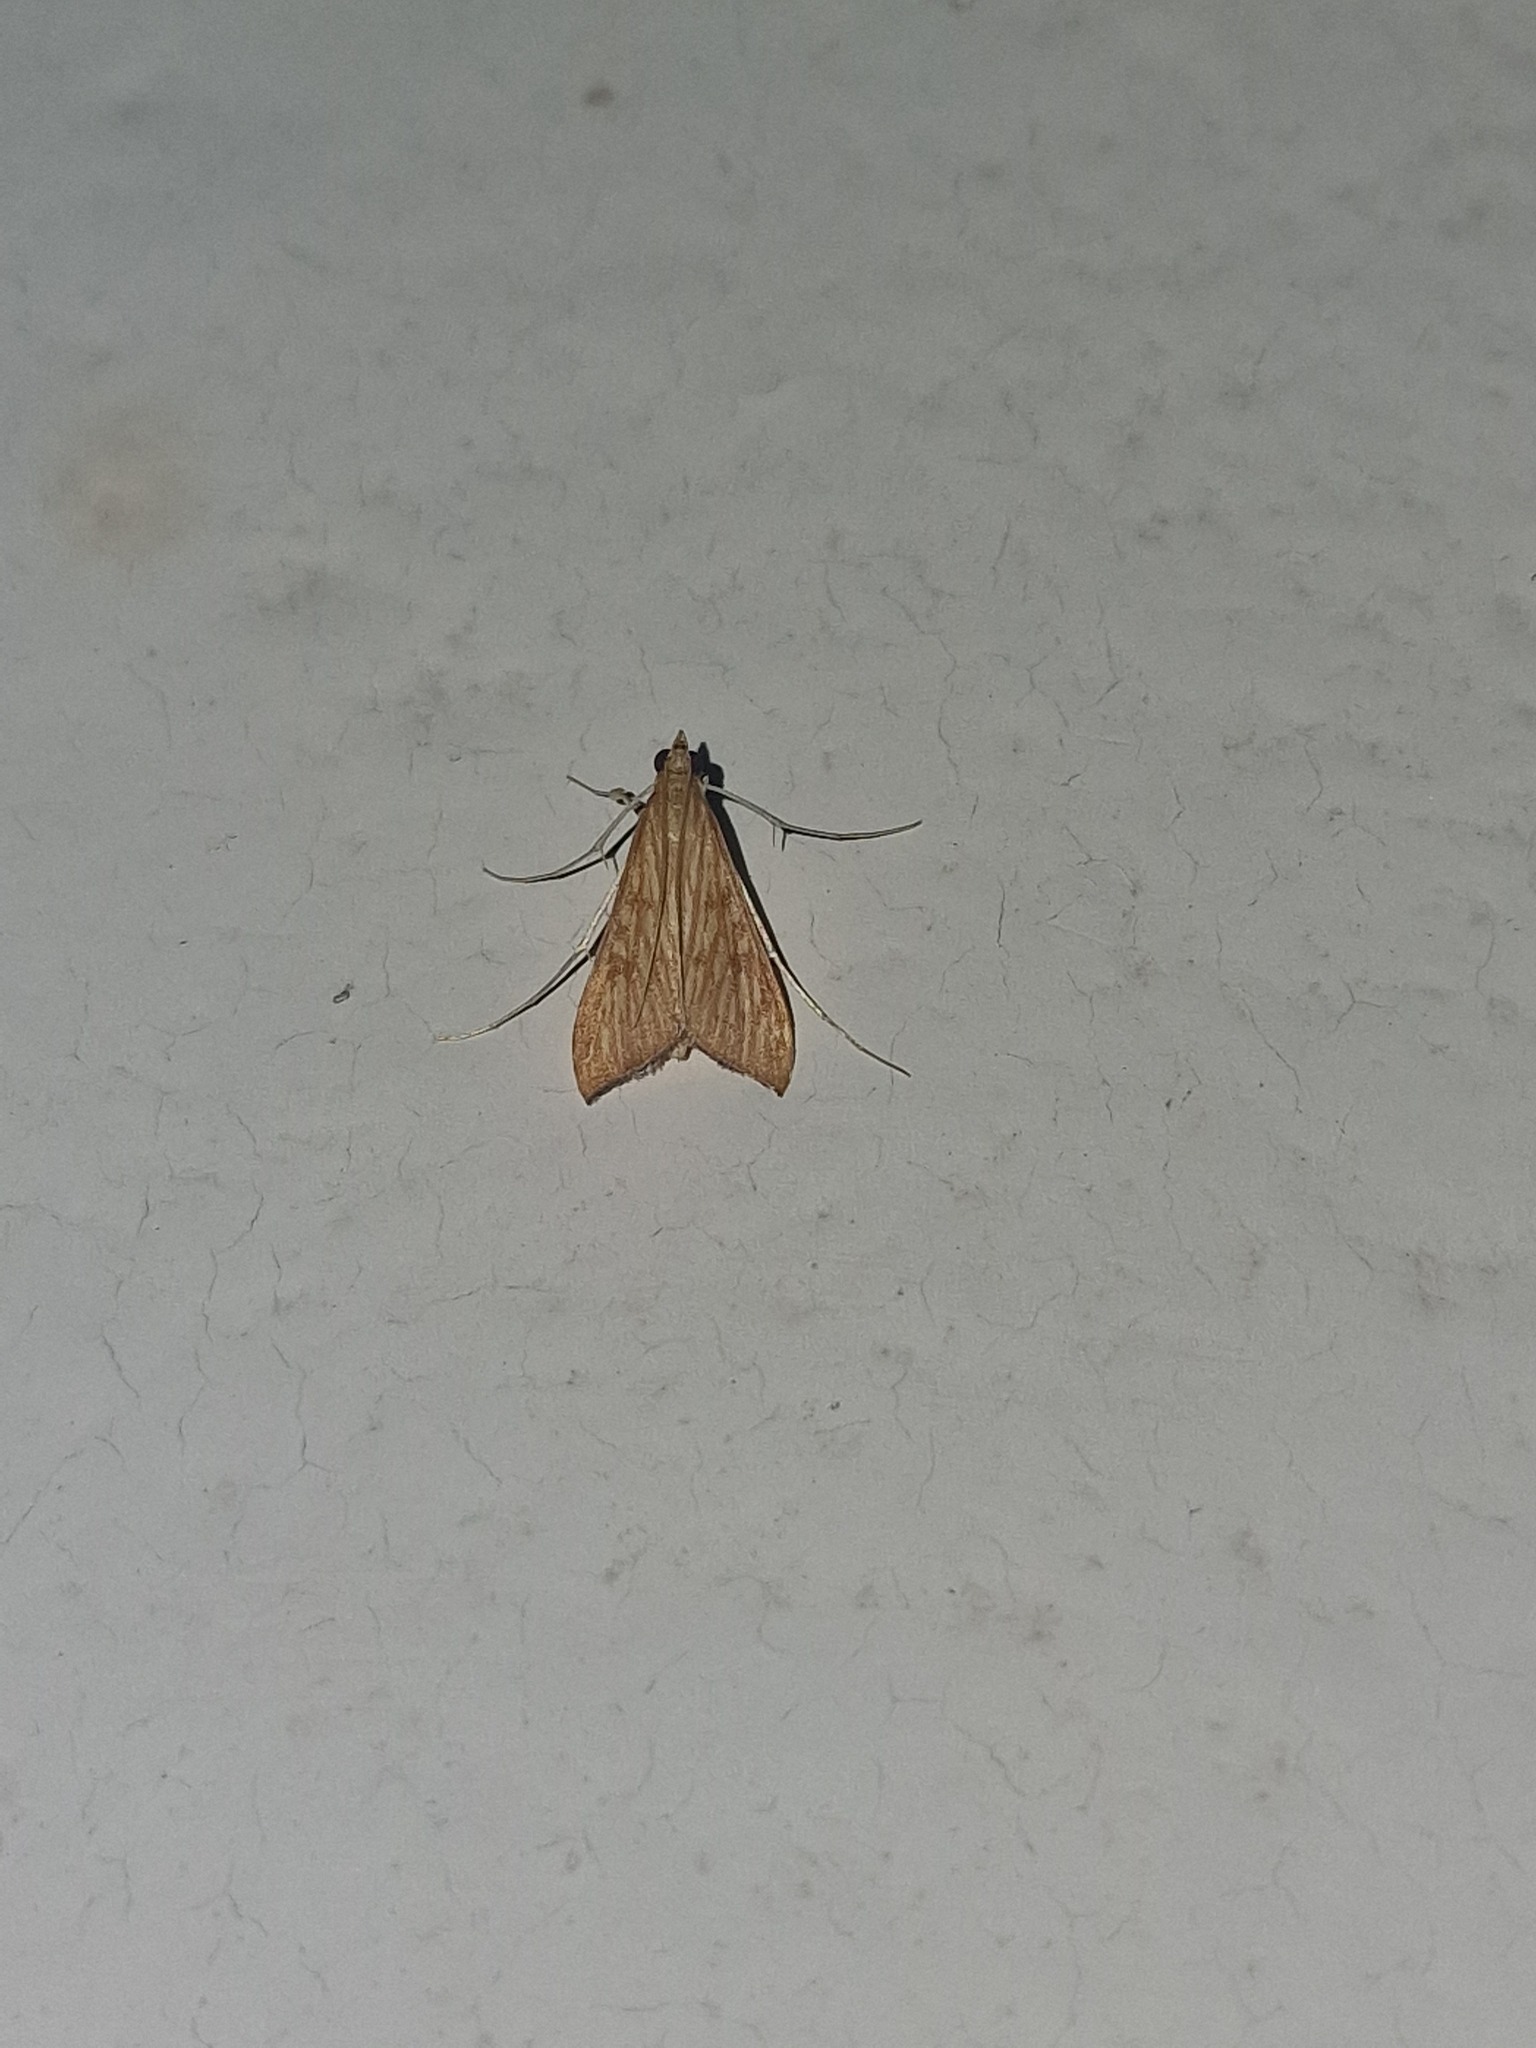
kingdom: Animalia
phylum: Arthropoda
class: Insecta
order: Lepidoptera
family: Crambidae
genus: Antigastra
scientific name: Antigastra catalaunalis
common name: Spanish dot
